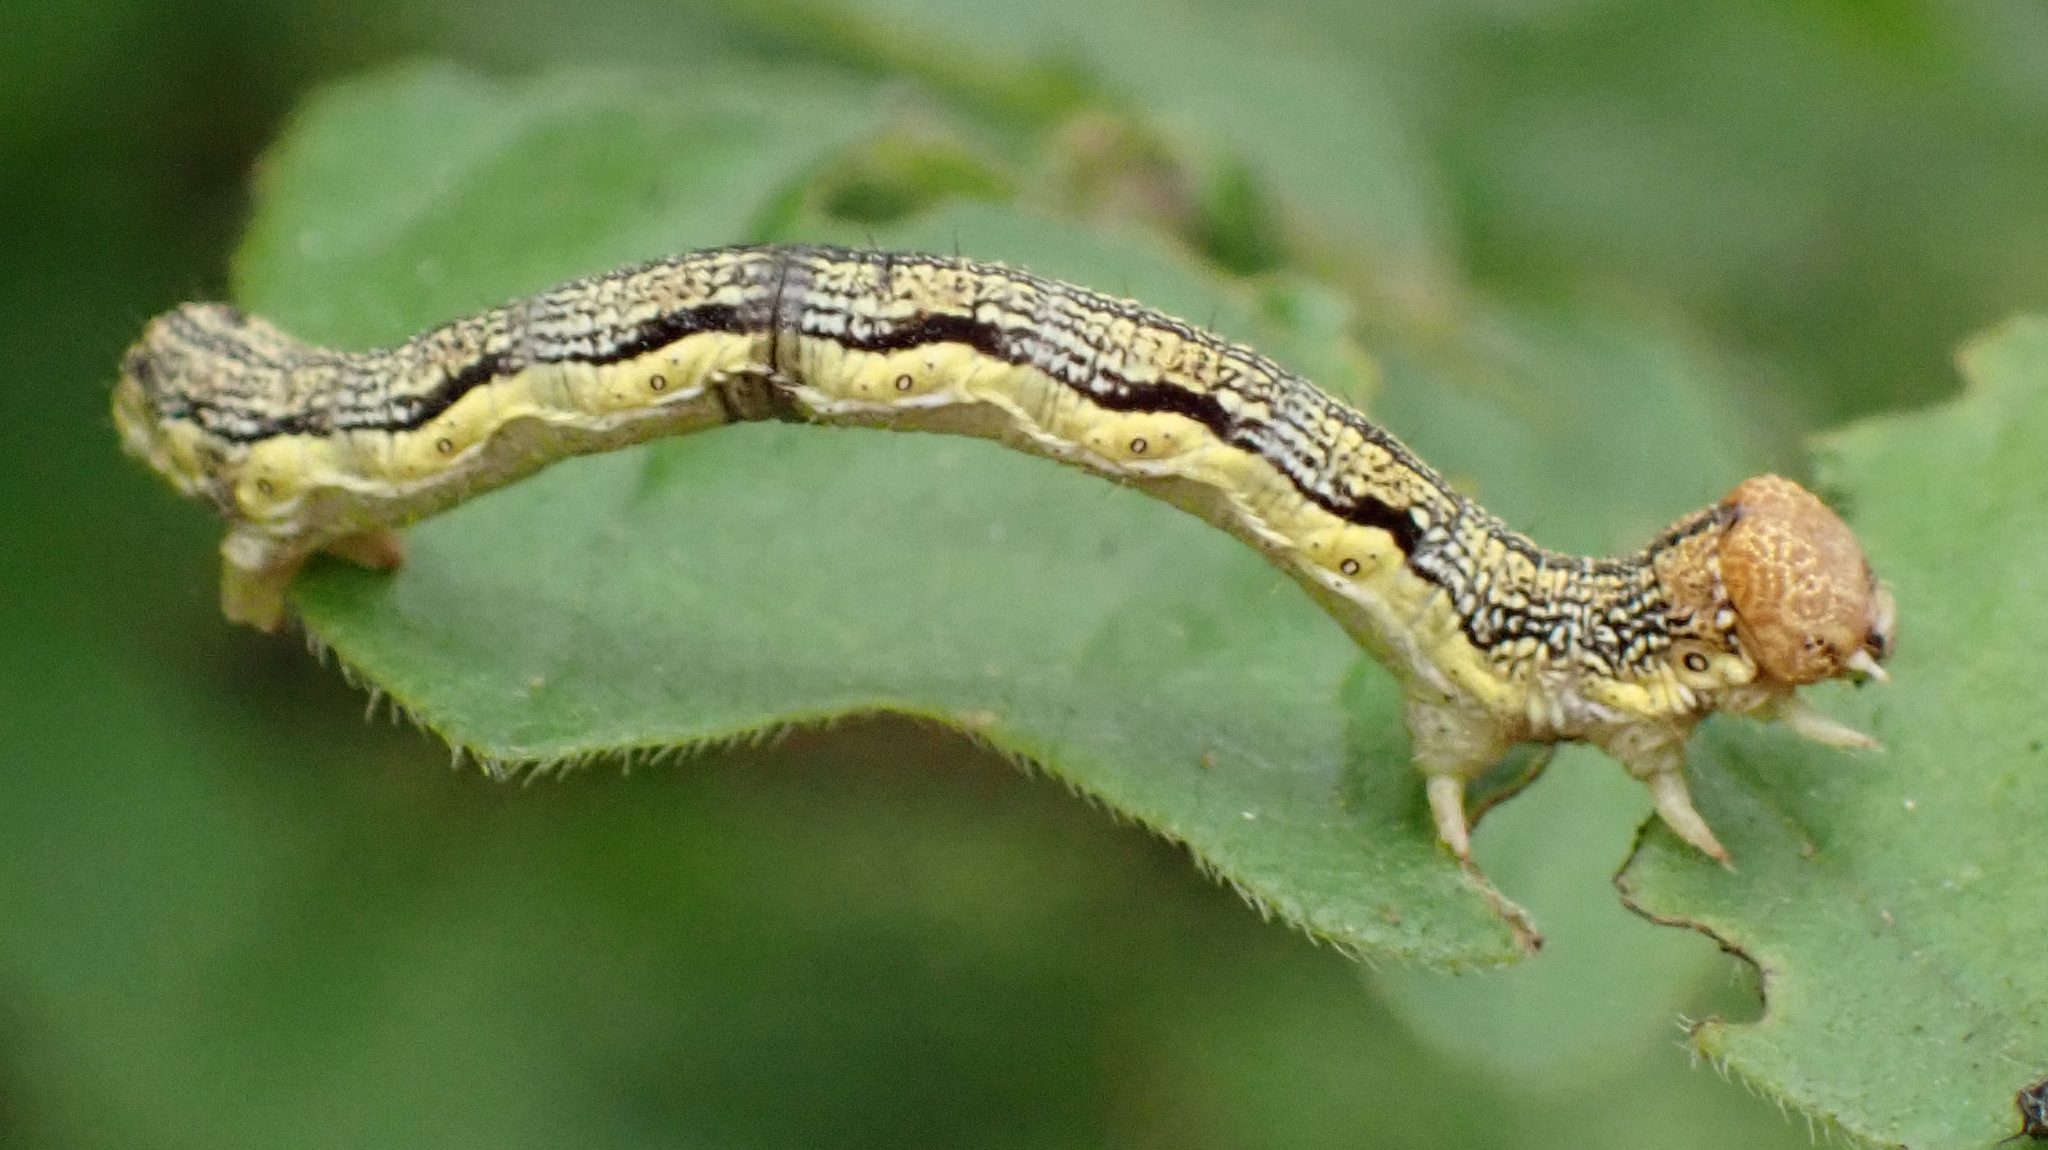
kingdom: Animalia
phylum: Arthropoda
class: Insecta
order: Lepidoptera
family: Geometridae
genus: Erannis
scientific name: Erannis defoliaria
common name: Mottled umber
